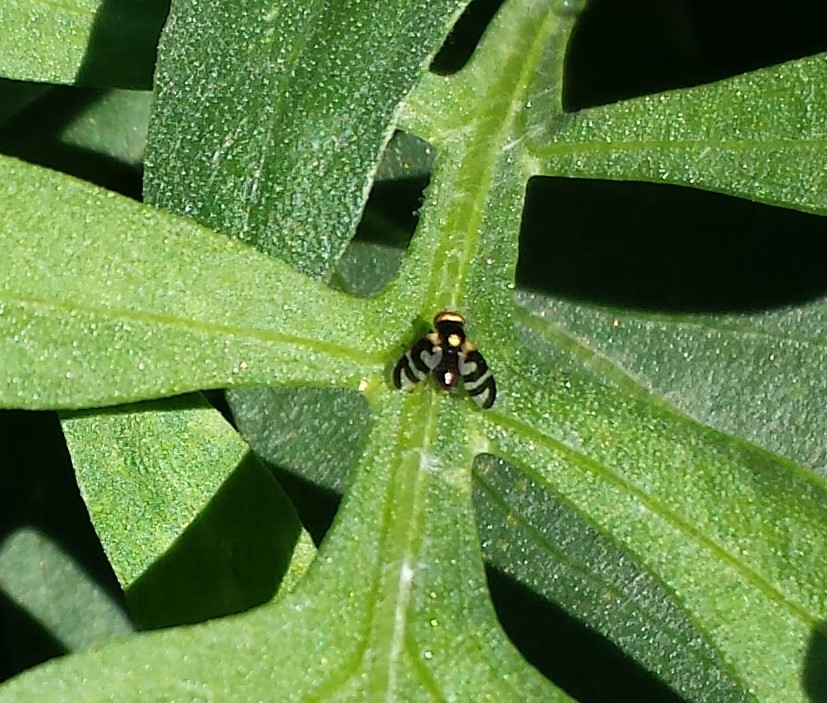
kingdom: Animalia
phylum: Arthropoda
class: Insecta
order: Diptera
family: Tephritidae
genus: Urophora
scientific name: Urophora quadrifasciata
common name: Knapweed seedhead fly
